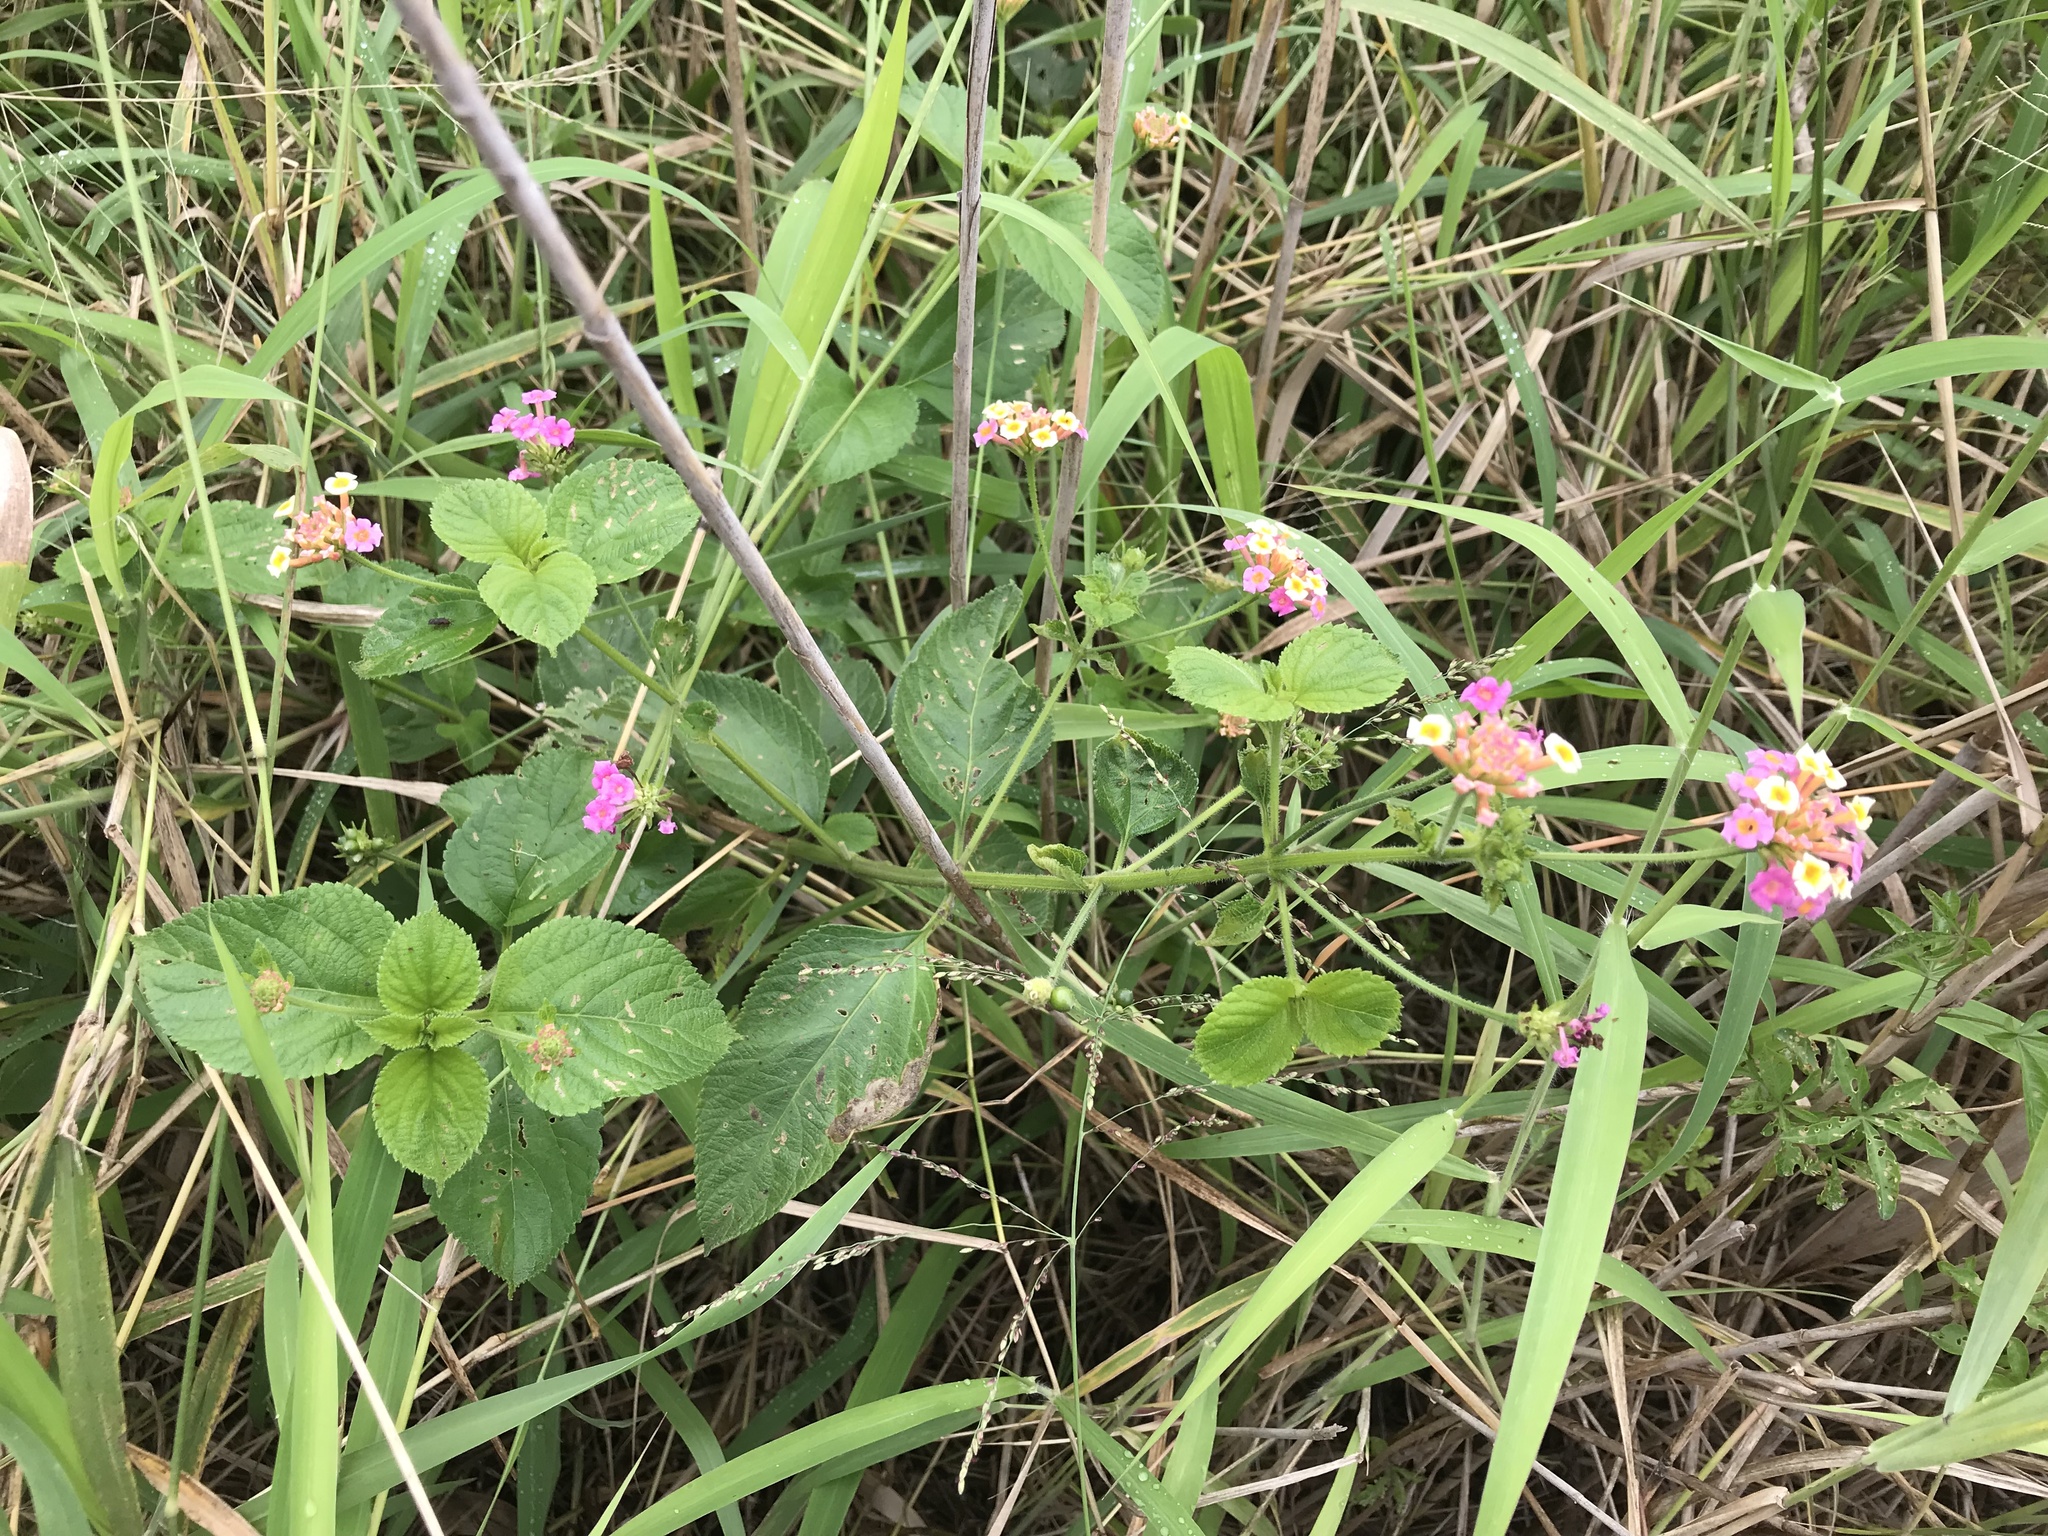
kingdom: Plantae
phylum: Tracheophyta
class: Magnoliopsida
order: Lamiales
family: Verbenaceae
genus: Lantana
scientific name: Lantana camara
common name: Lantana
